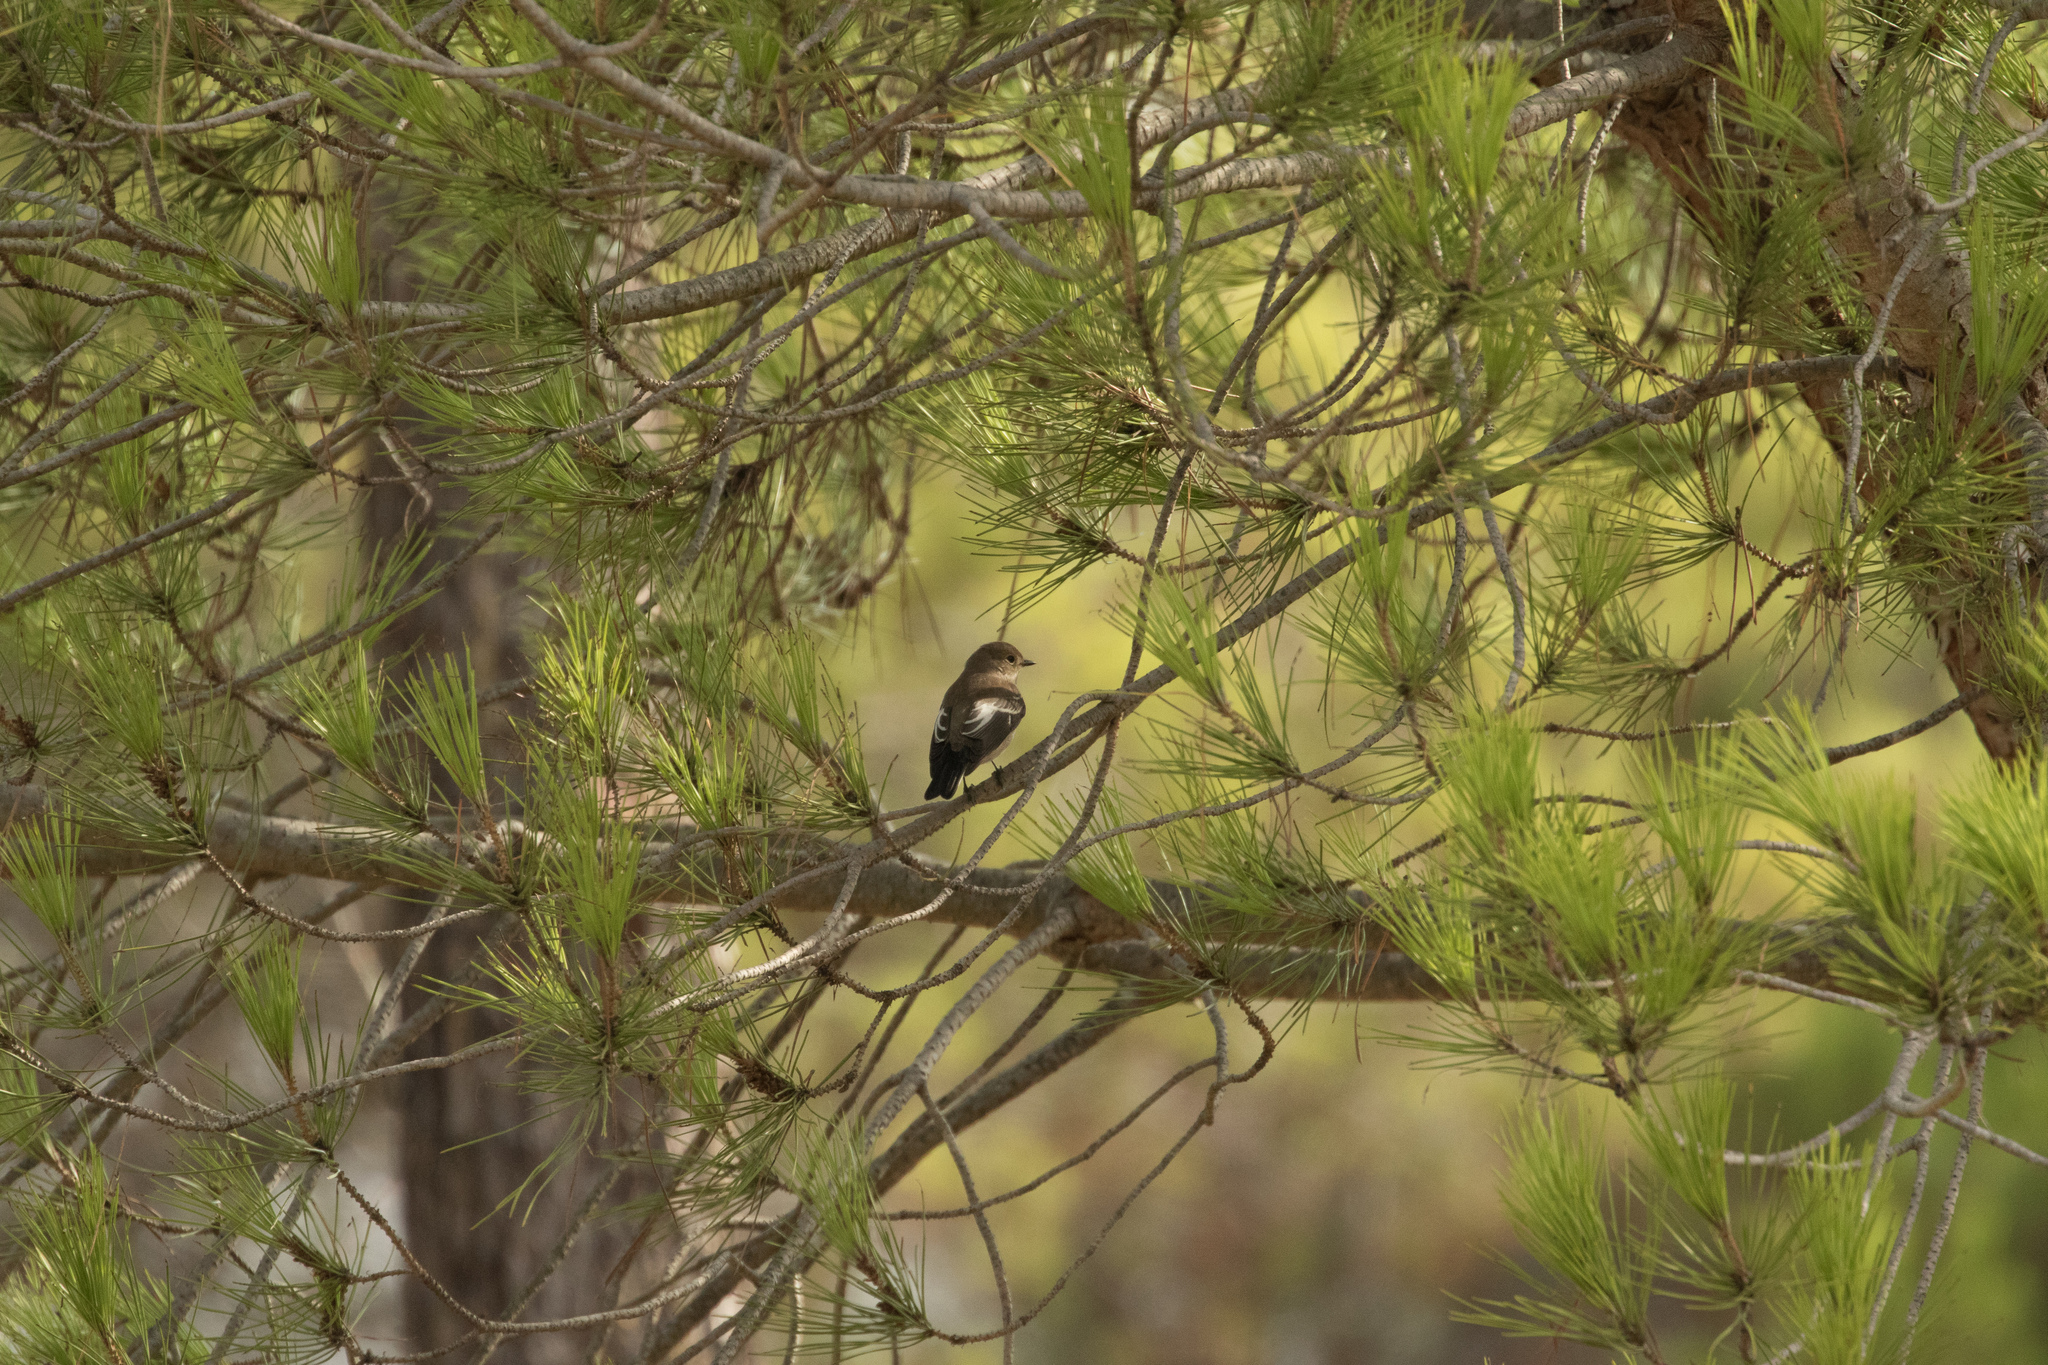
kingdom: Animalia
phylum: Chordata
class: Aves
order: Passeriformes
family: Muscicapidae
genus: Ficedula
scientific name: Ficedula hypoleuca
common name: European pied flycatcher
